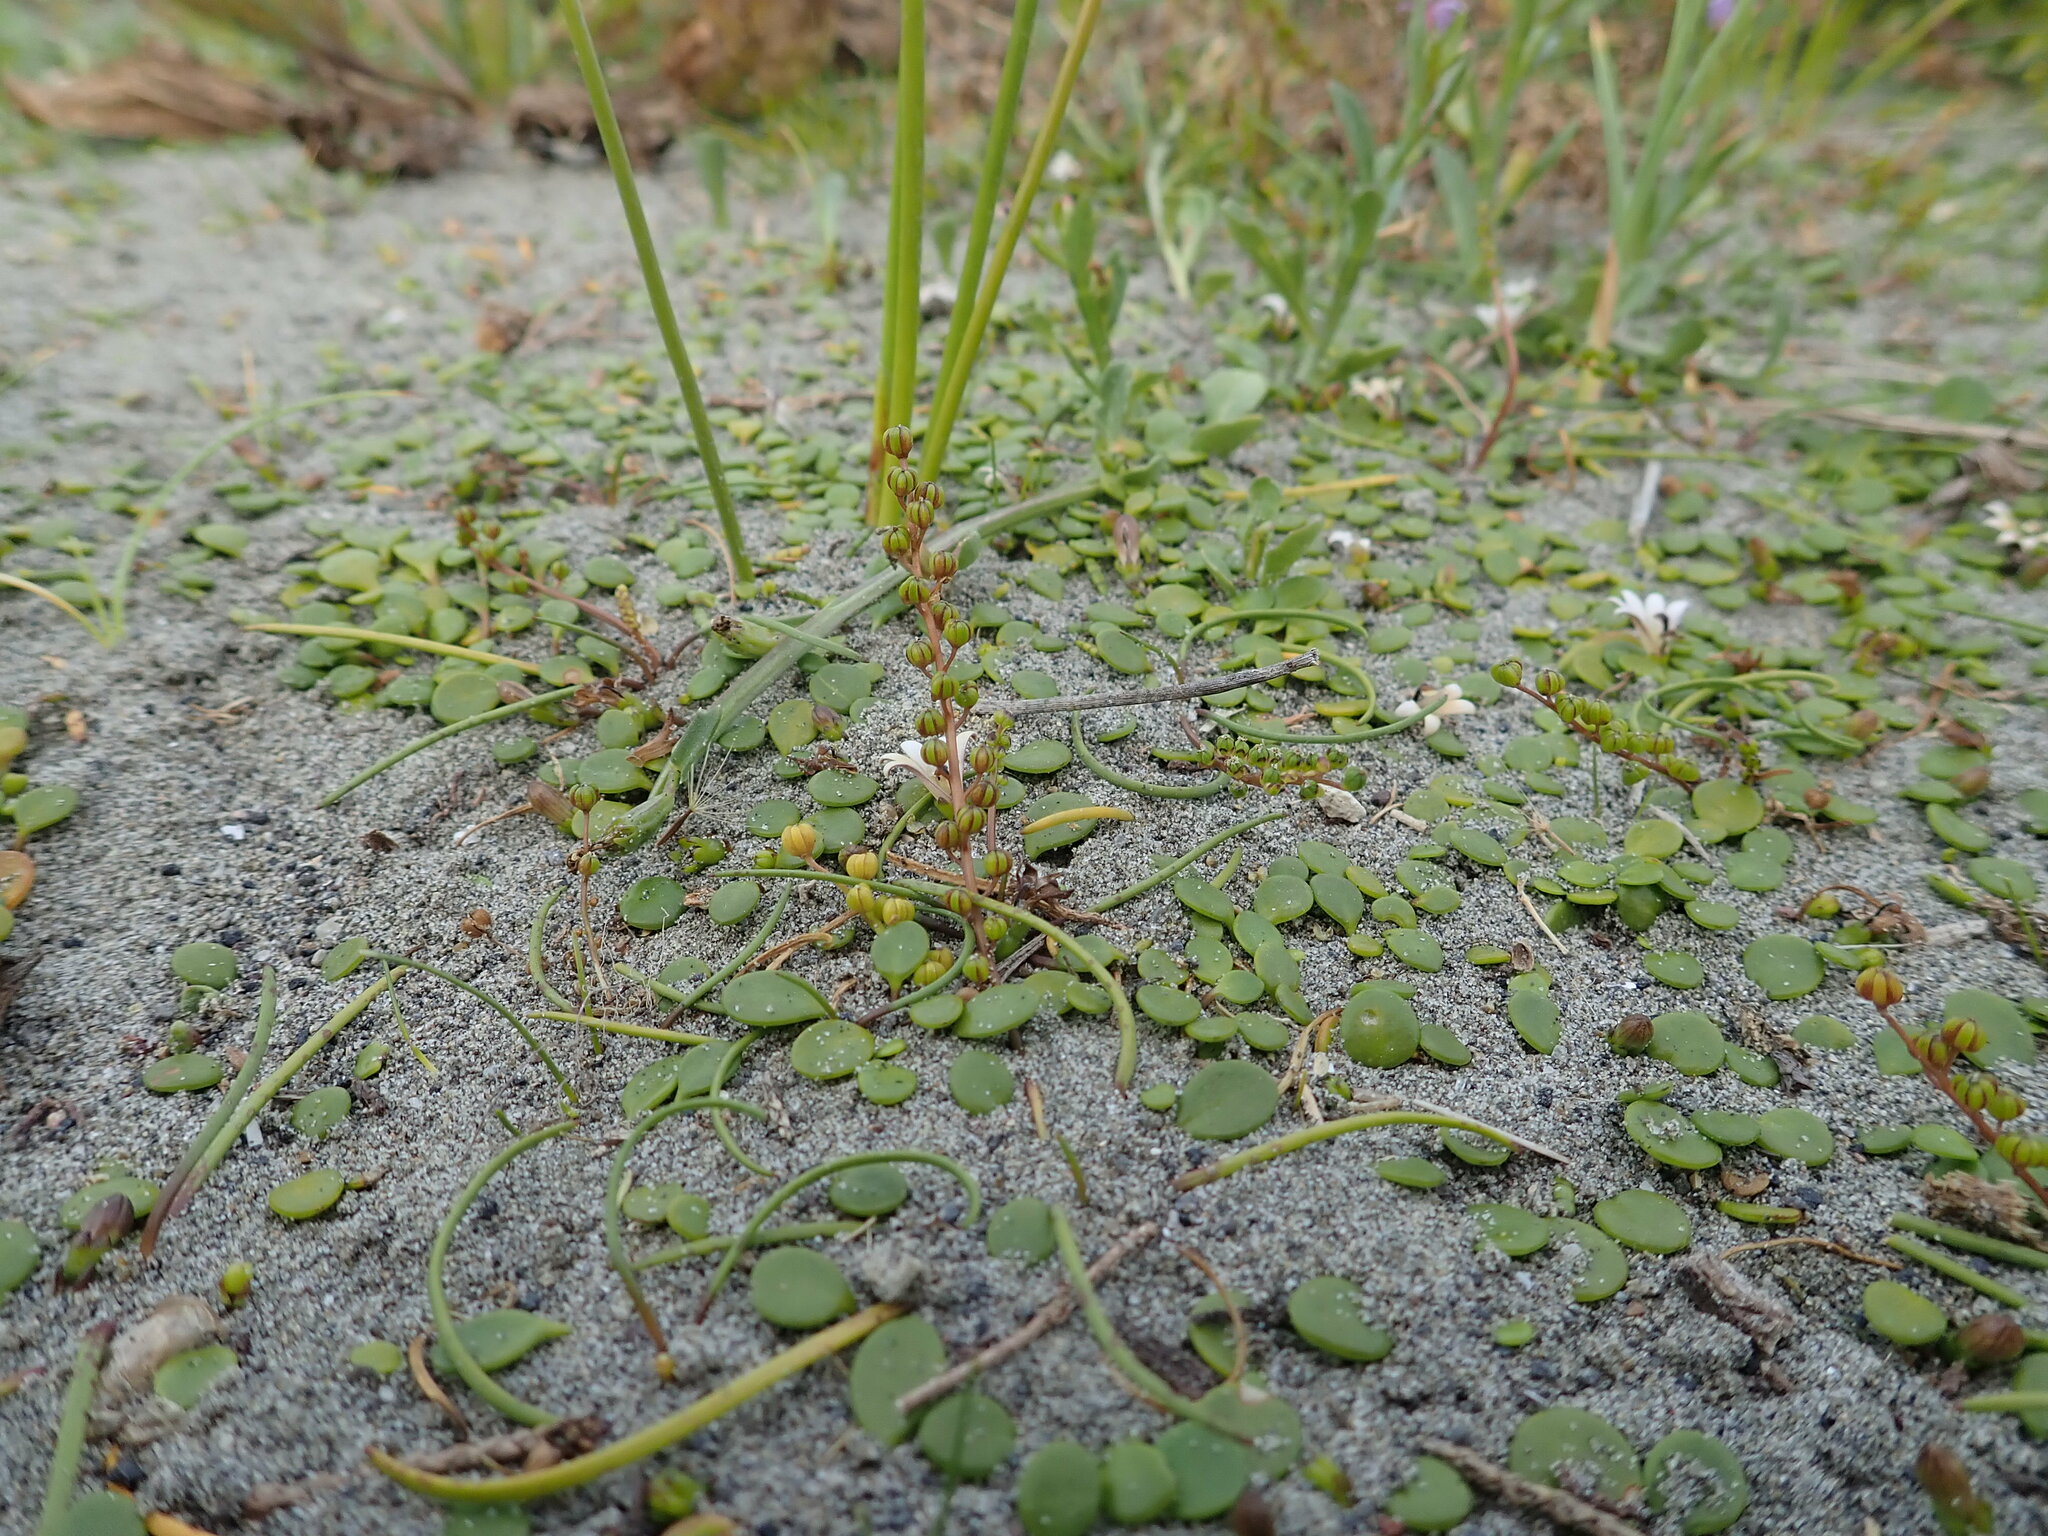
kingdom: Plantae
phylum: Tracheophyta
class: Liliopsida
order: Alismatales
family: Juncaginaceae
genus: Triglochin
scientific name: Triglochin striata
